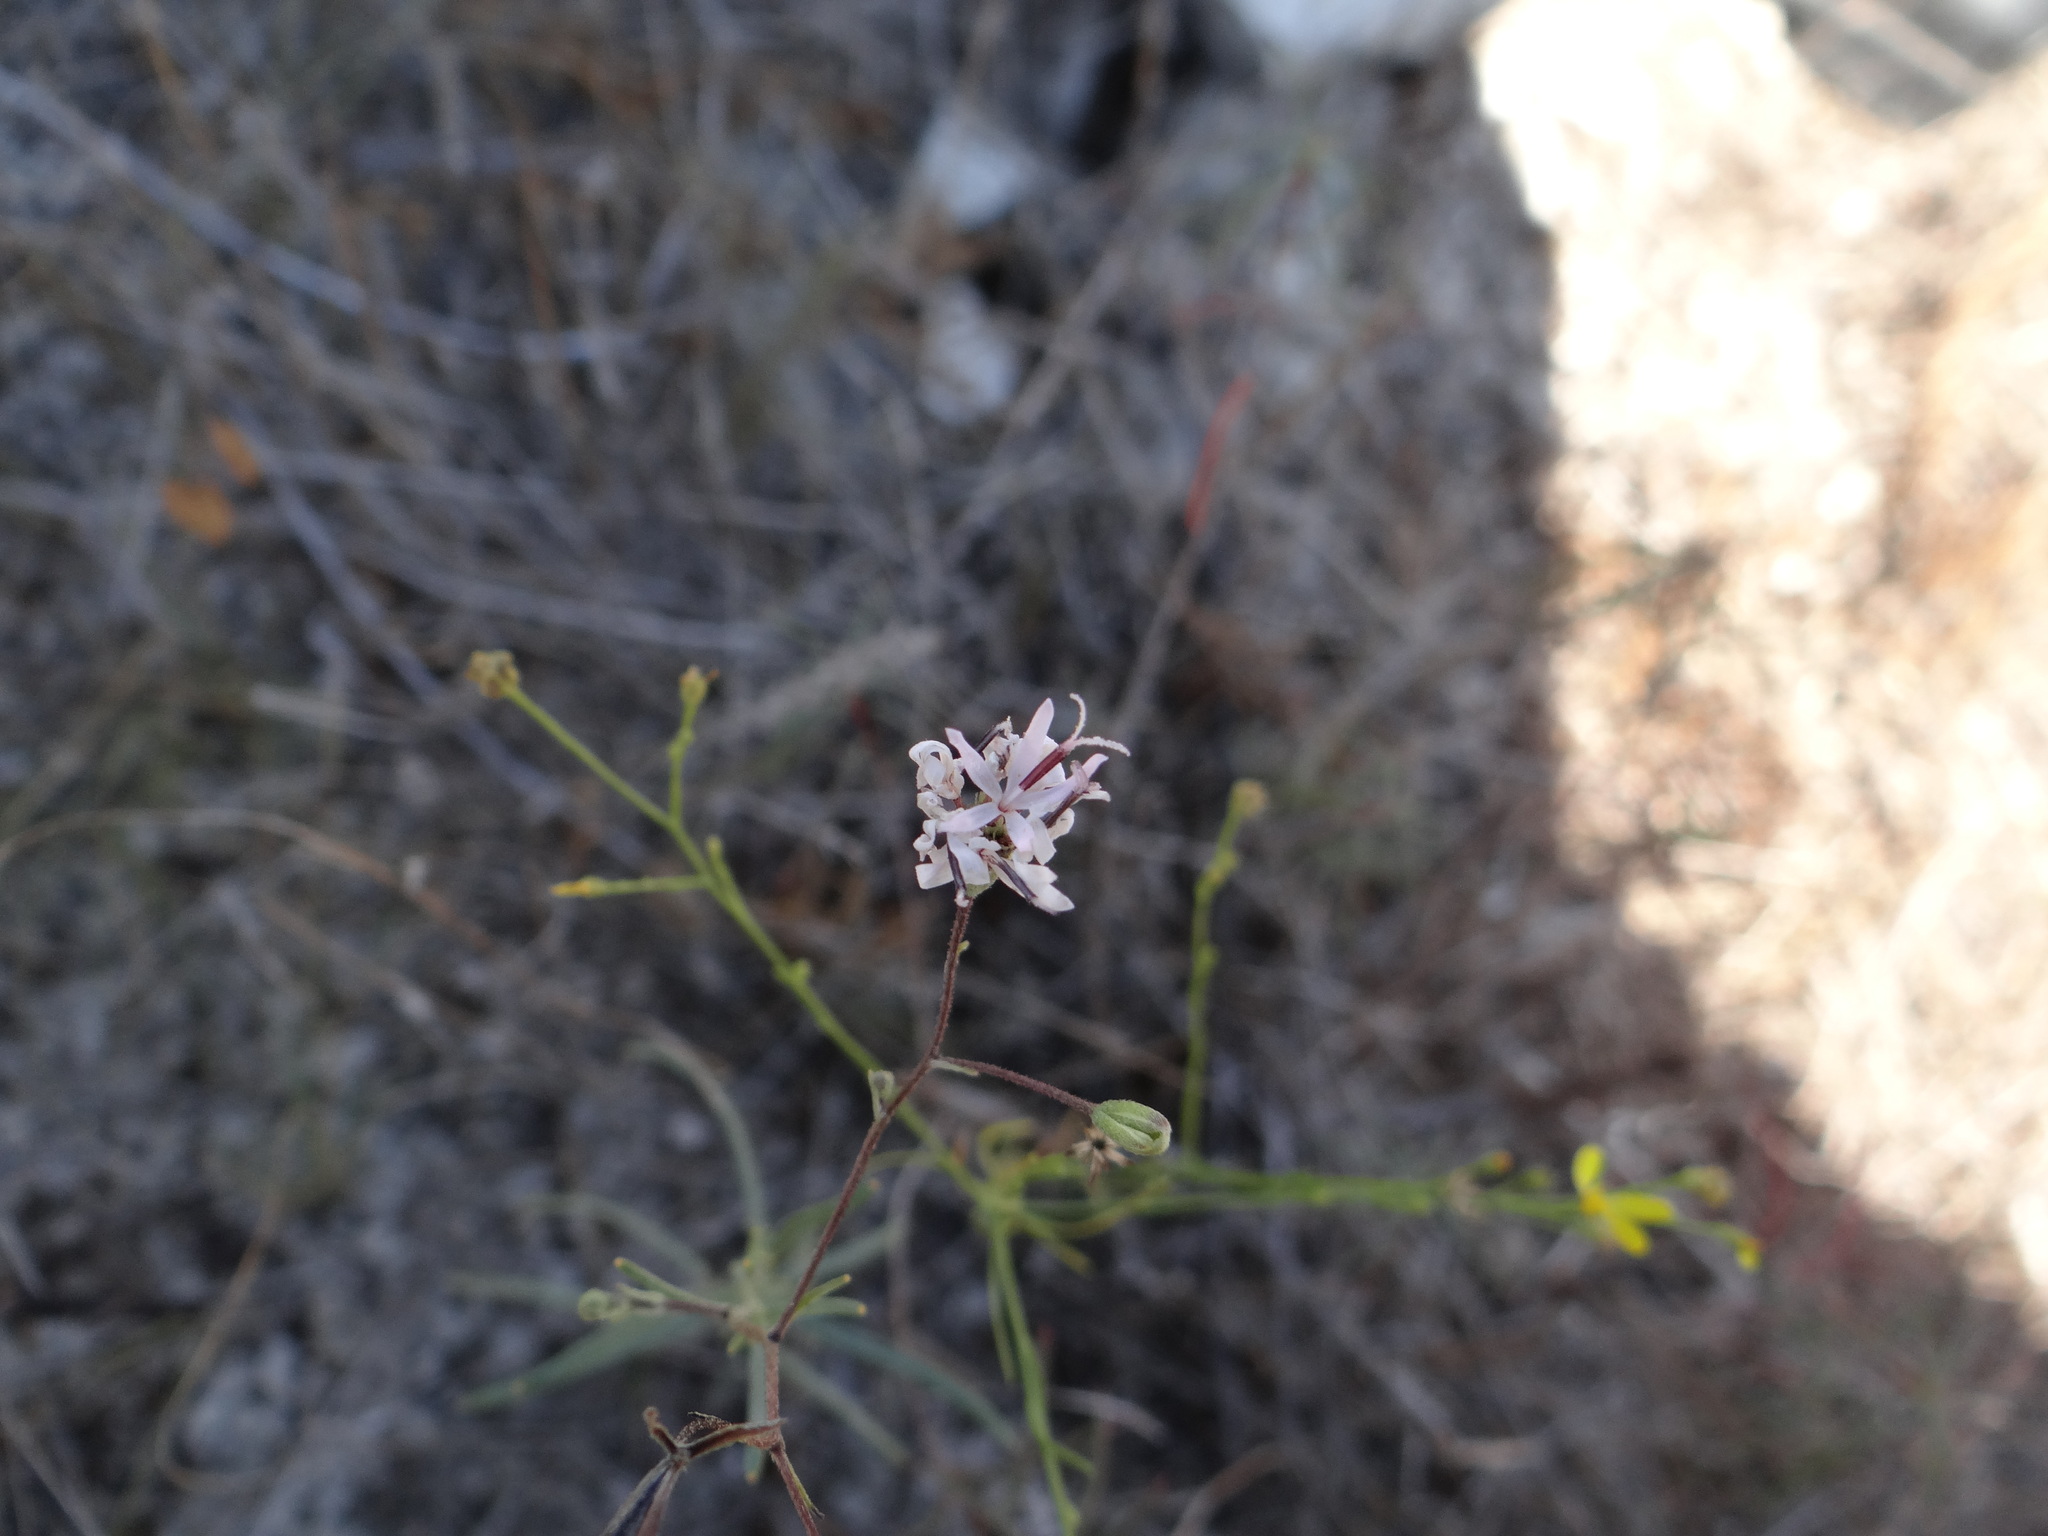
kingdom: Plantae
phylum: Tracheophyta
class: Magnoliopsida
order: Asterales
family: Asteraceae
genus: Palafoxia
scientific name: Palafoxia callosa
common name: Small palafox
